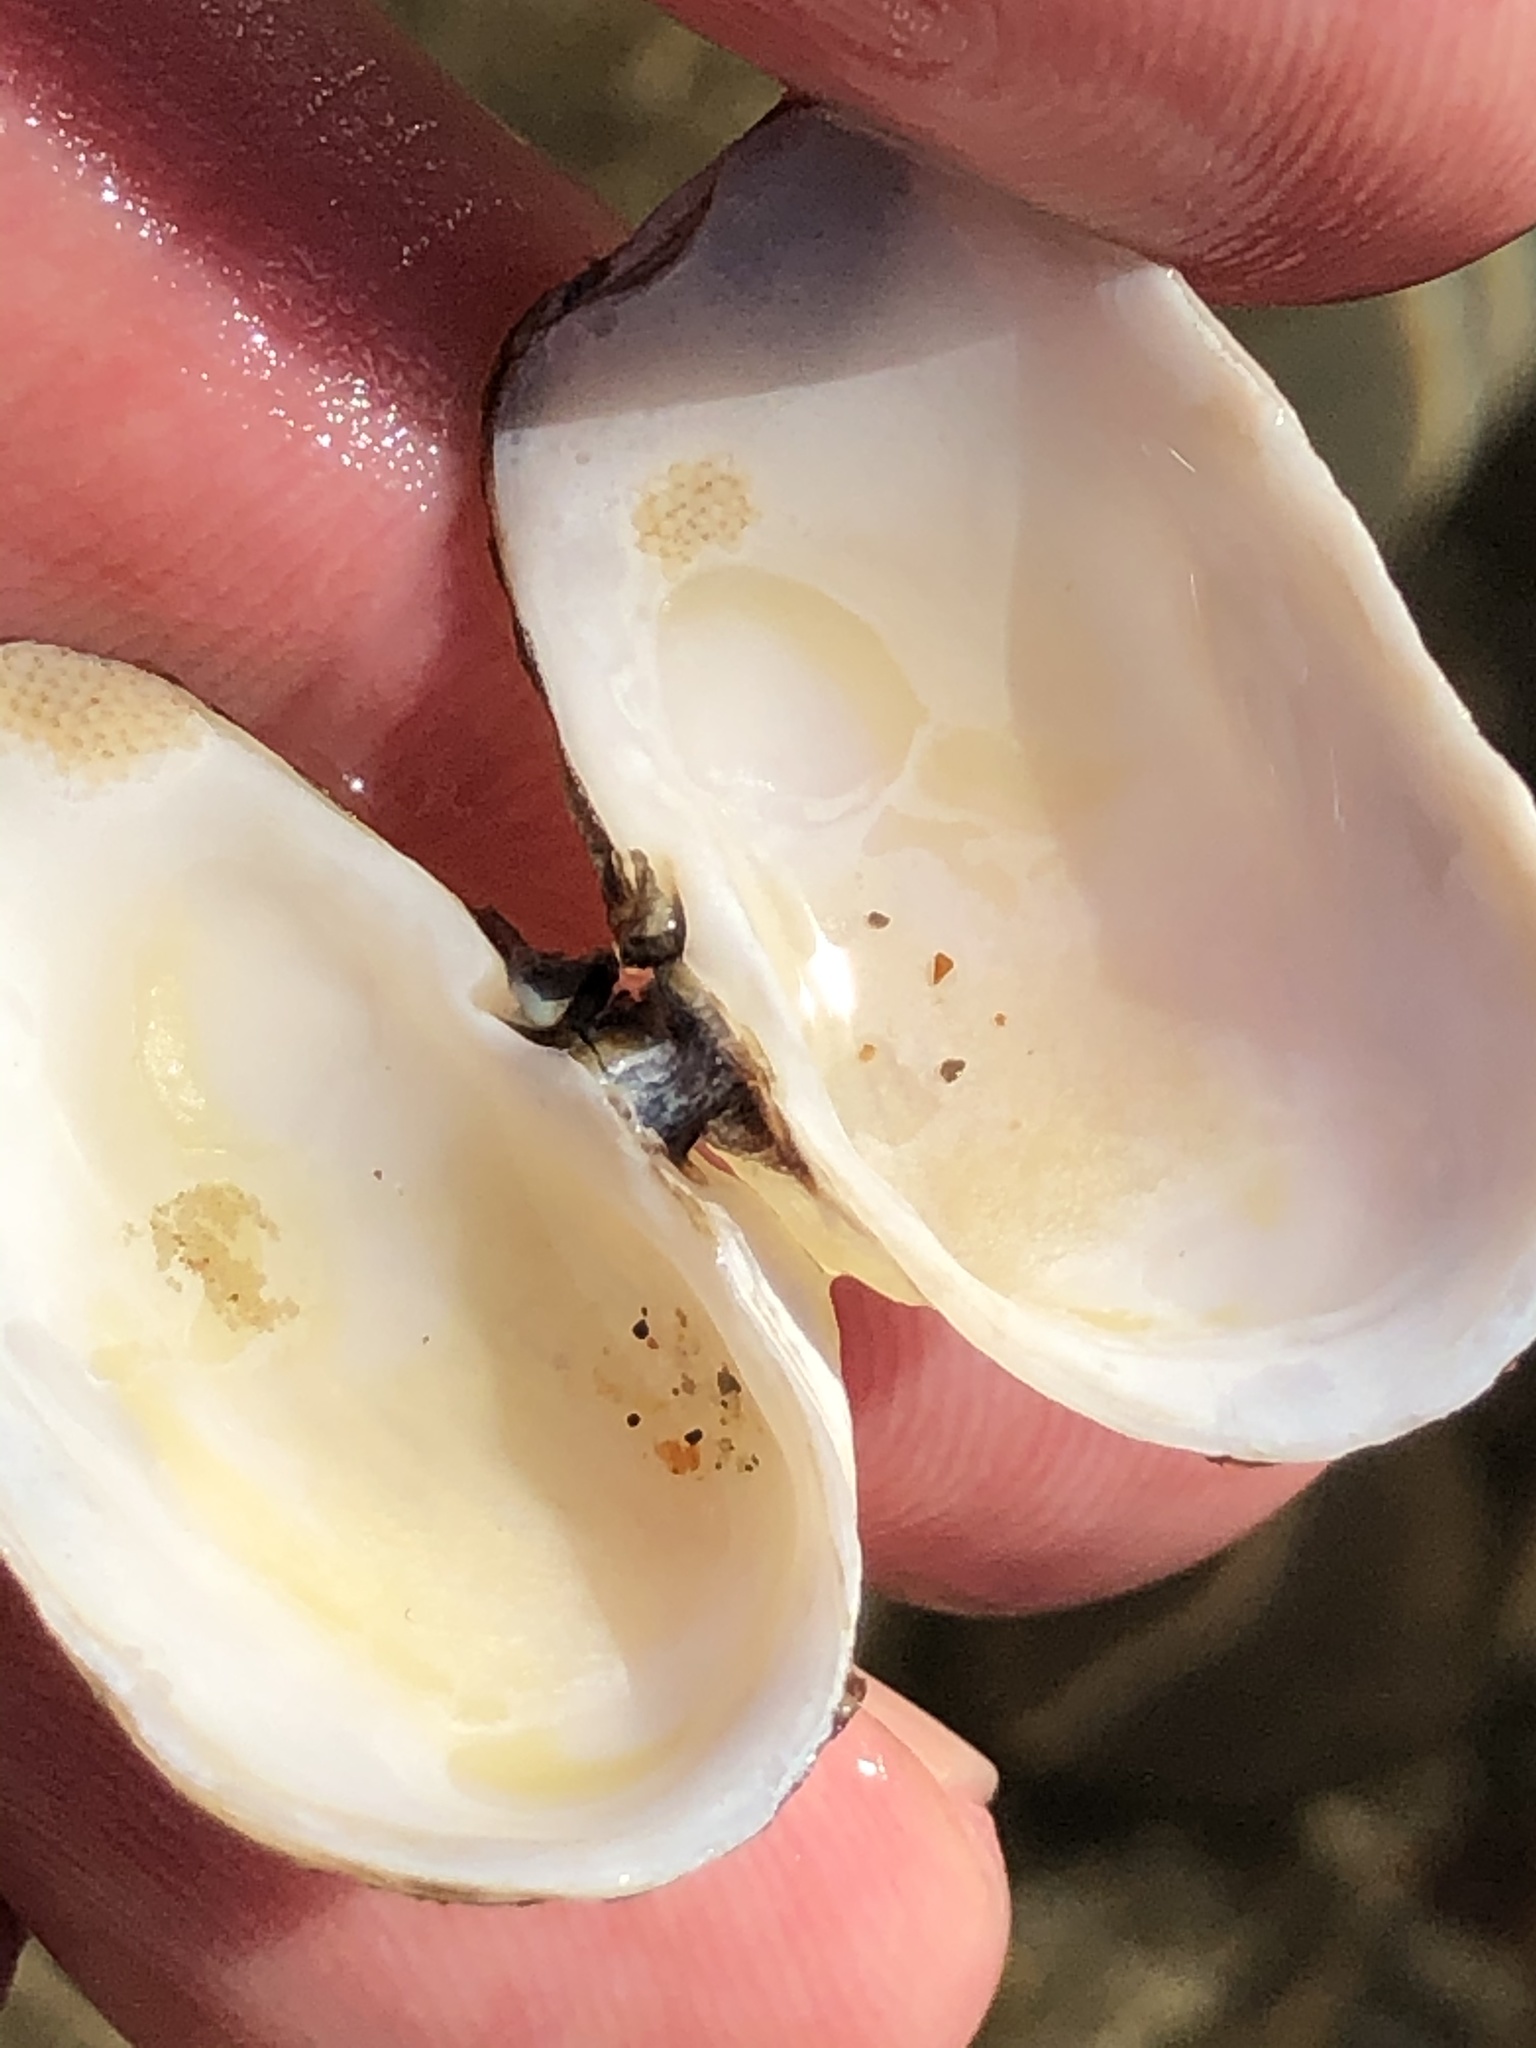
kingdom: Animalia
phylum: Mollusca
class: Bivalvia
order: Adapedonta
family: Hiatellidae
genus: Hiatella
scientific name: Hiatella arctica
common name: Arctic hiatella
